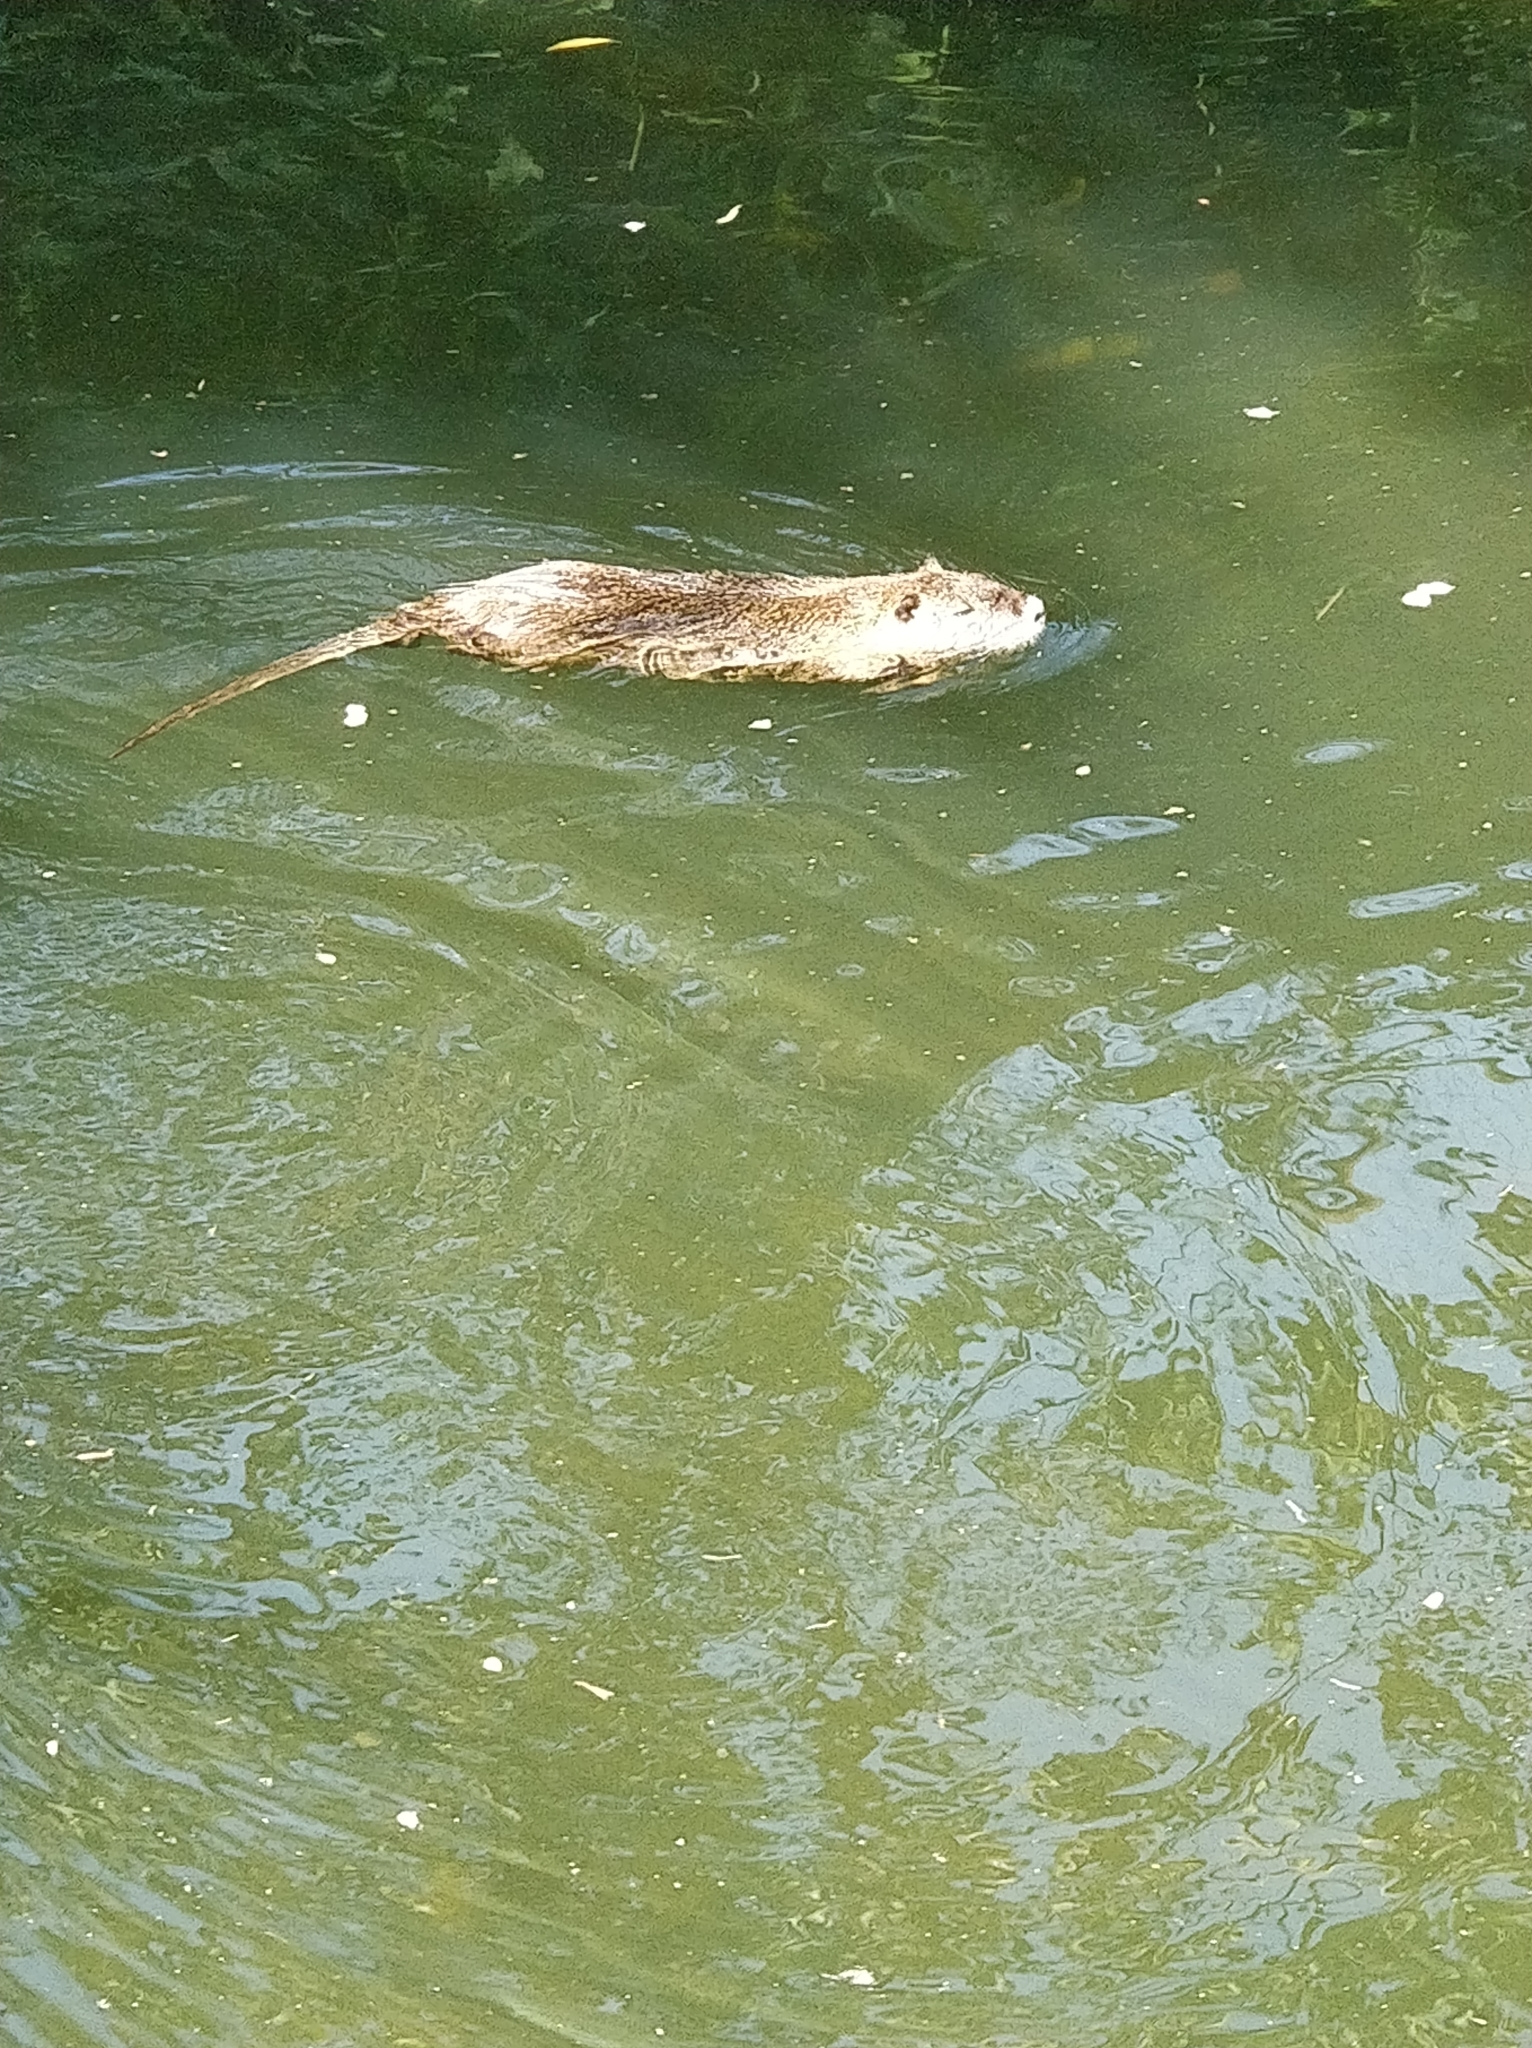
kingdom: Animalia
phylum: Chordata
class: Mammalia
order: Rodentia
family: Myocastoridae
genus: Myocastor
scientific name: Myocastor coypus
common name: Coypu
